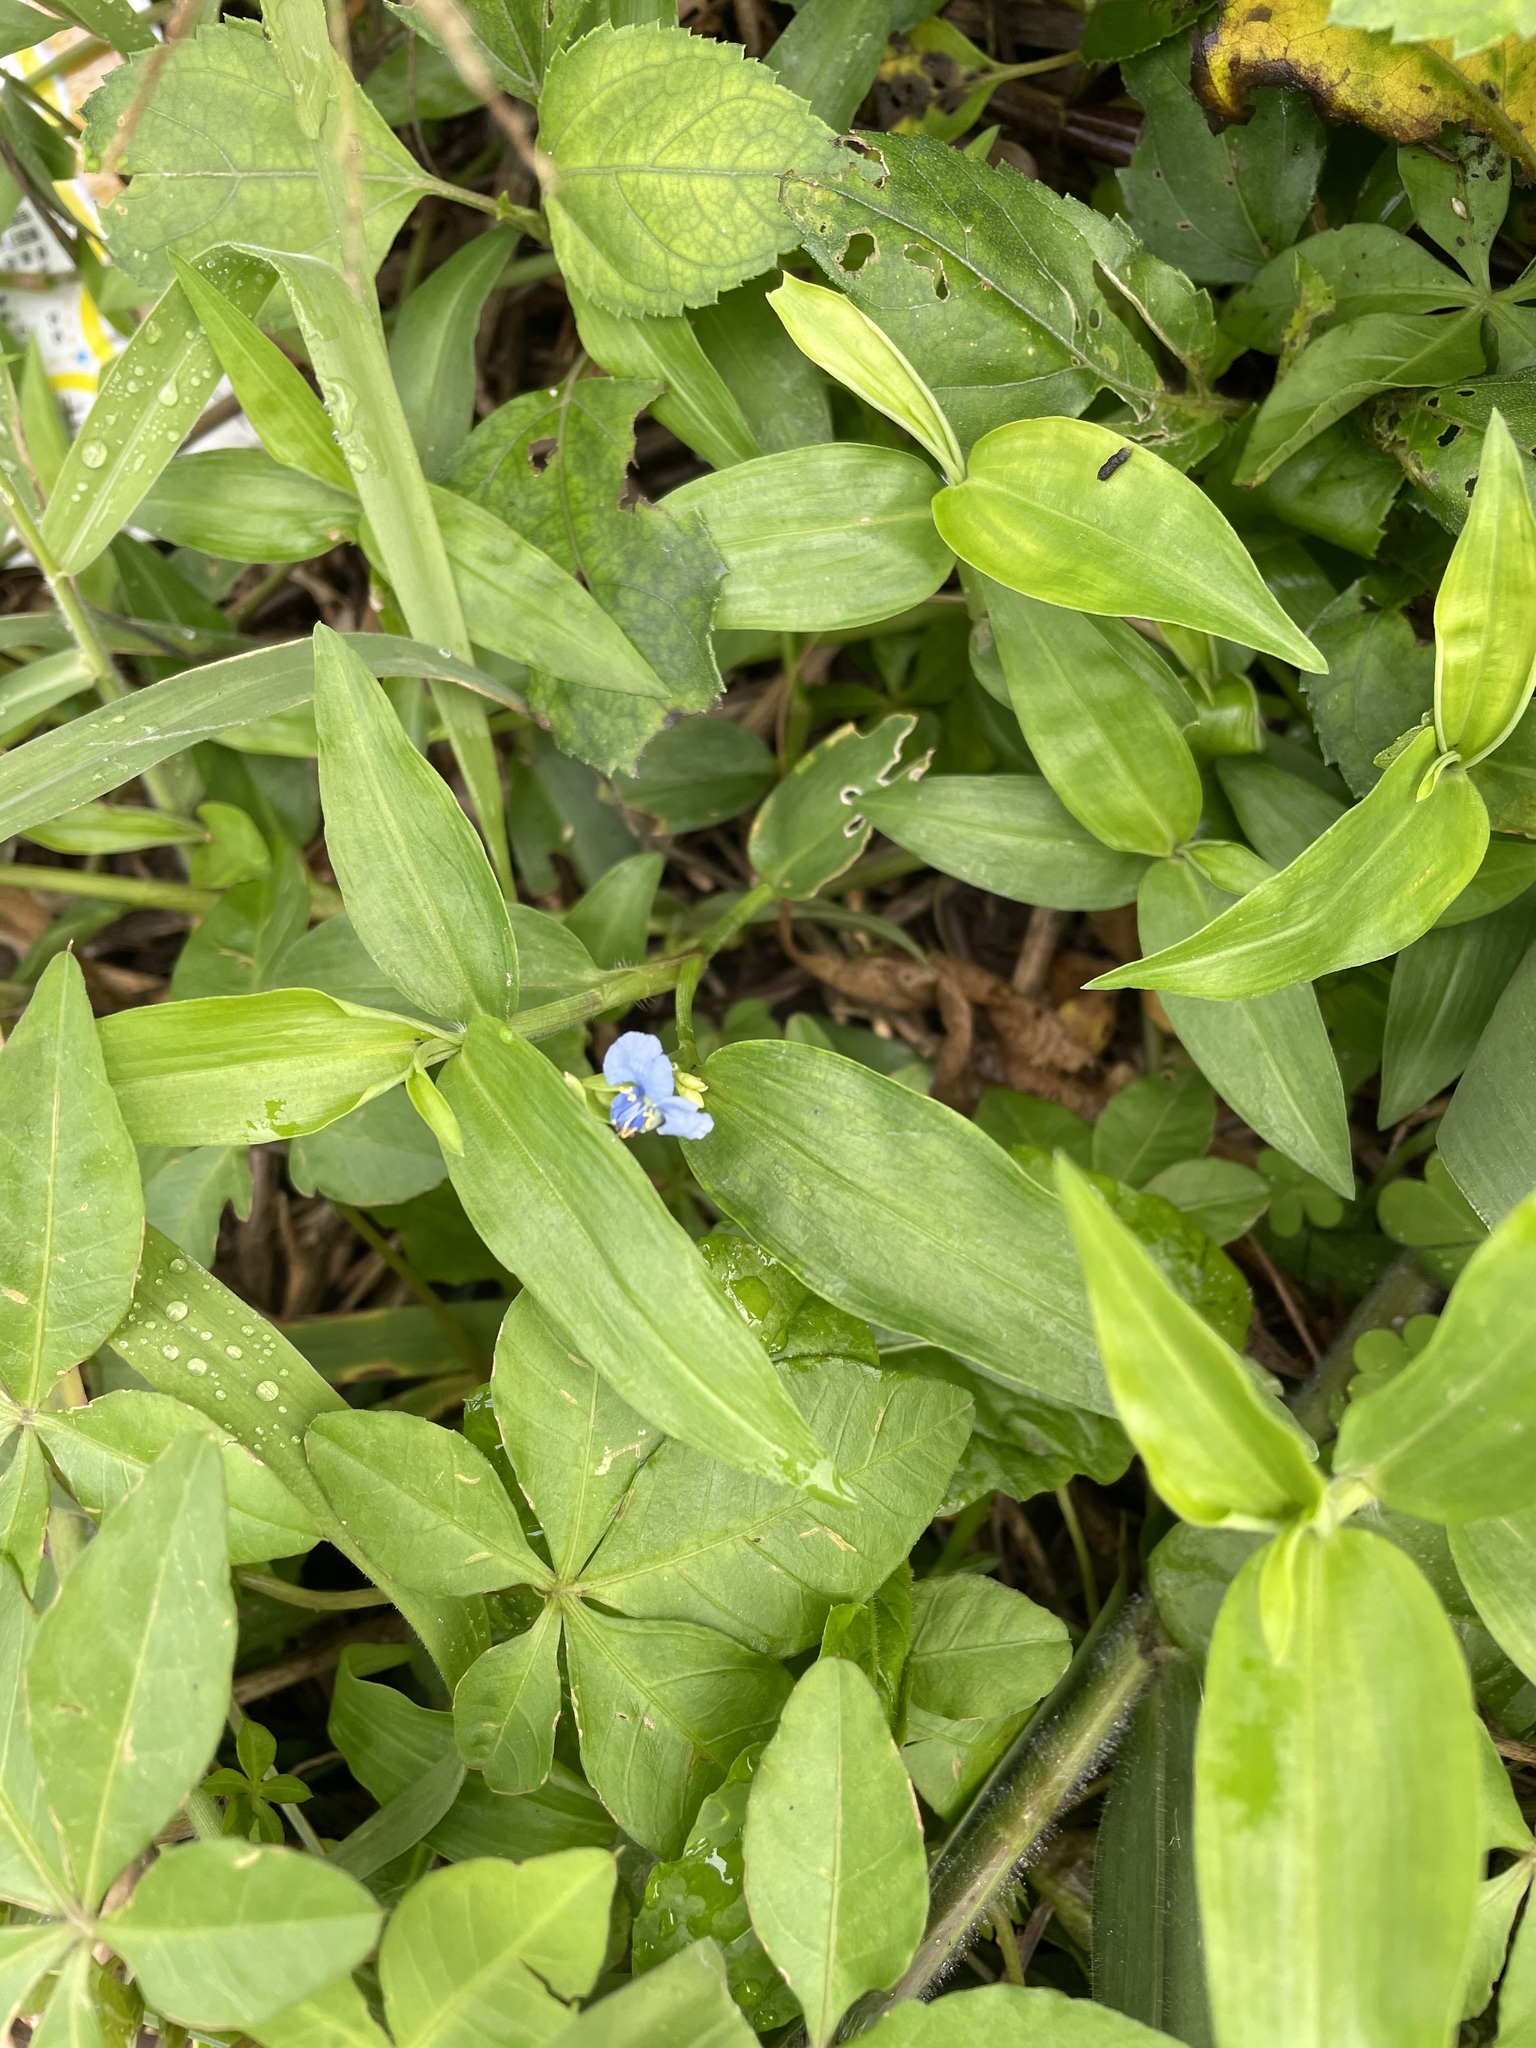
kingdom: Plantae
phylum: Tracheophyta
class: Liliopsida
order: Commelinales
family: Commelinaceae
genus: Commelina
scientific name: Commelina diffusa
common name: Climbing dayflower
